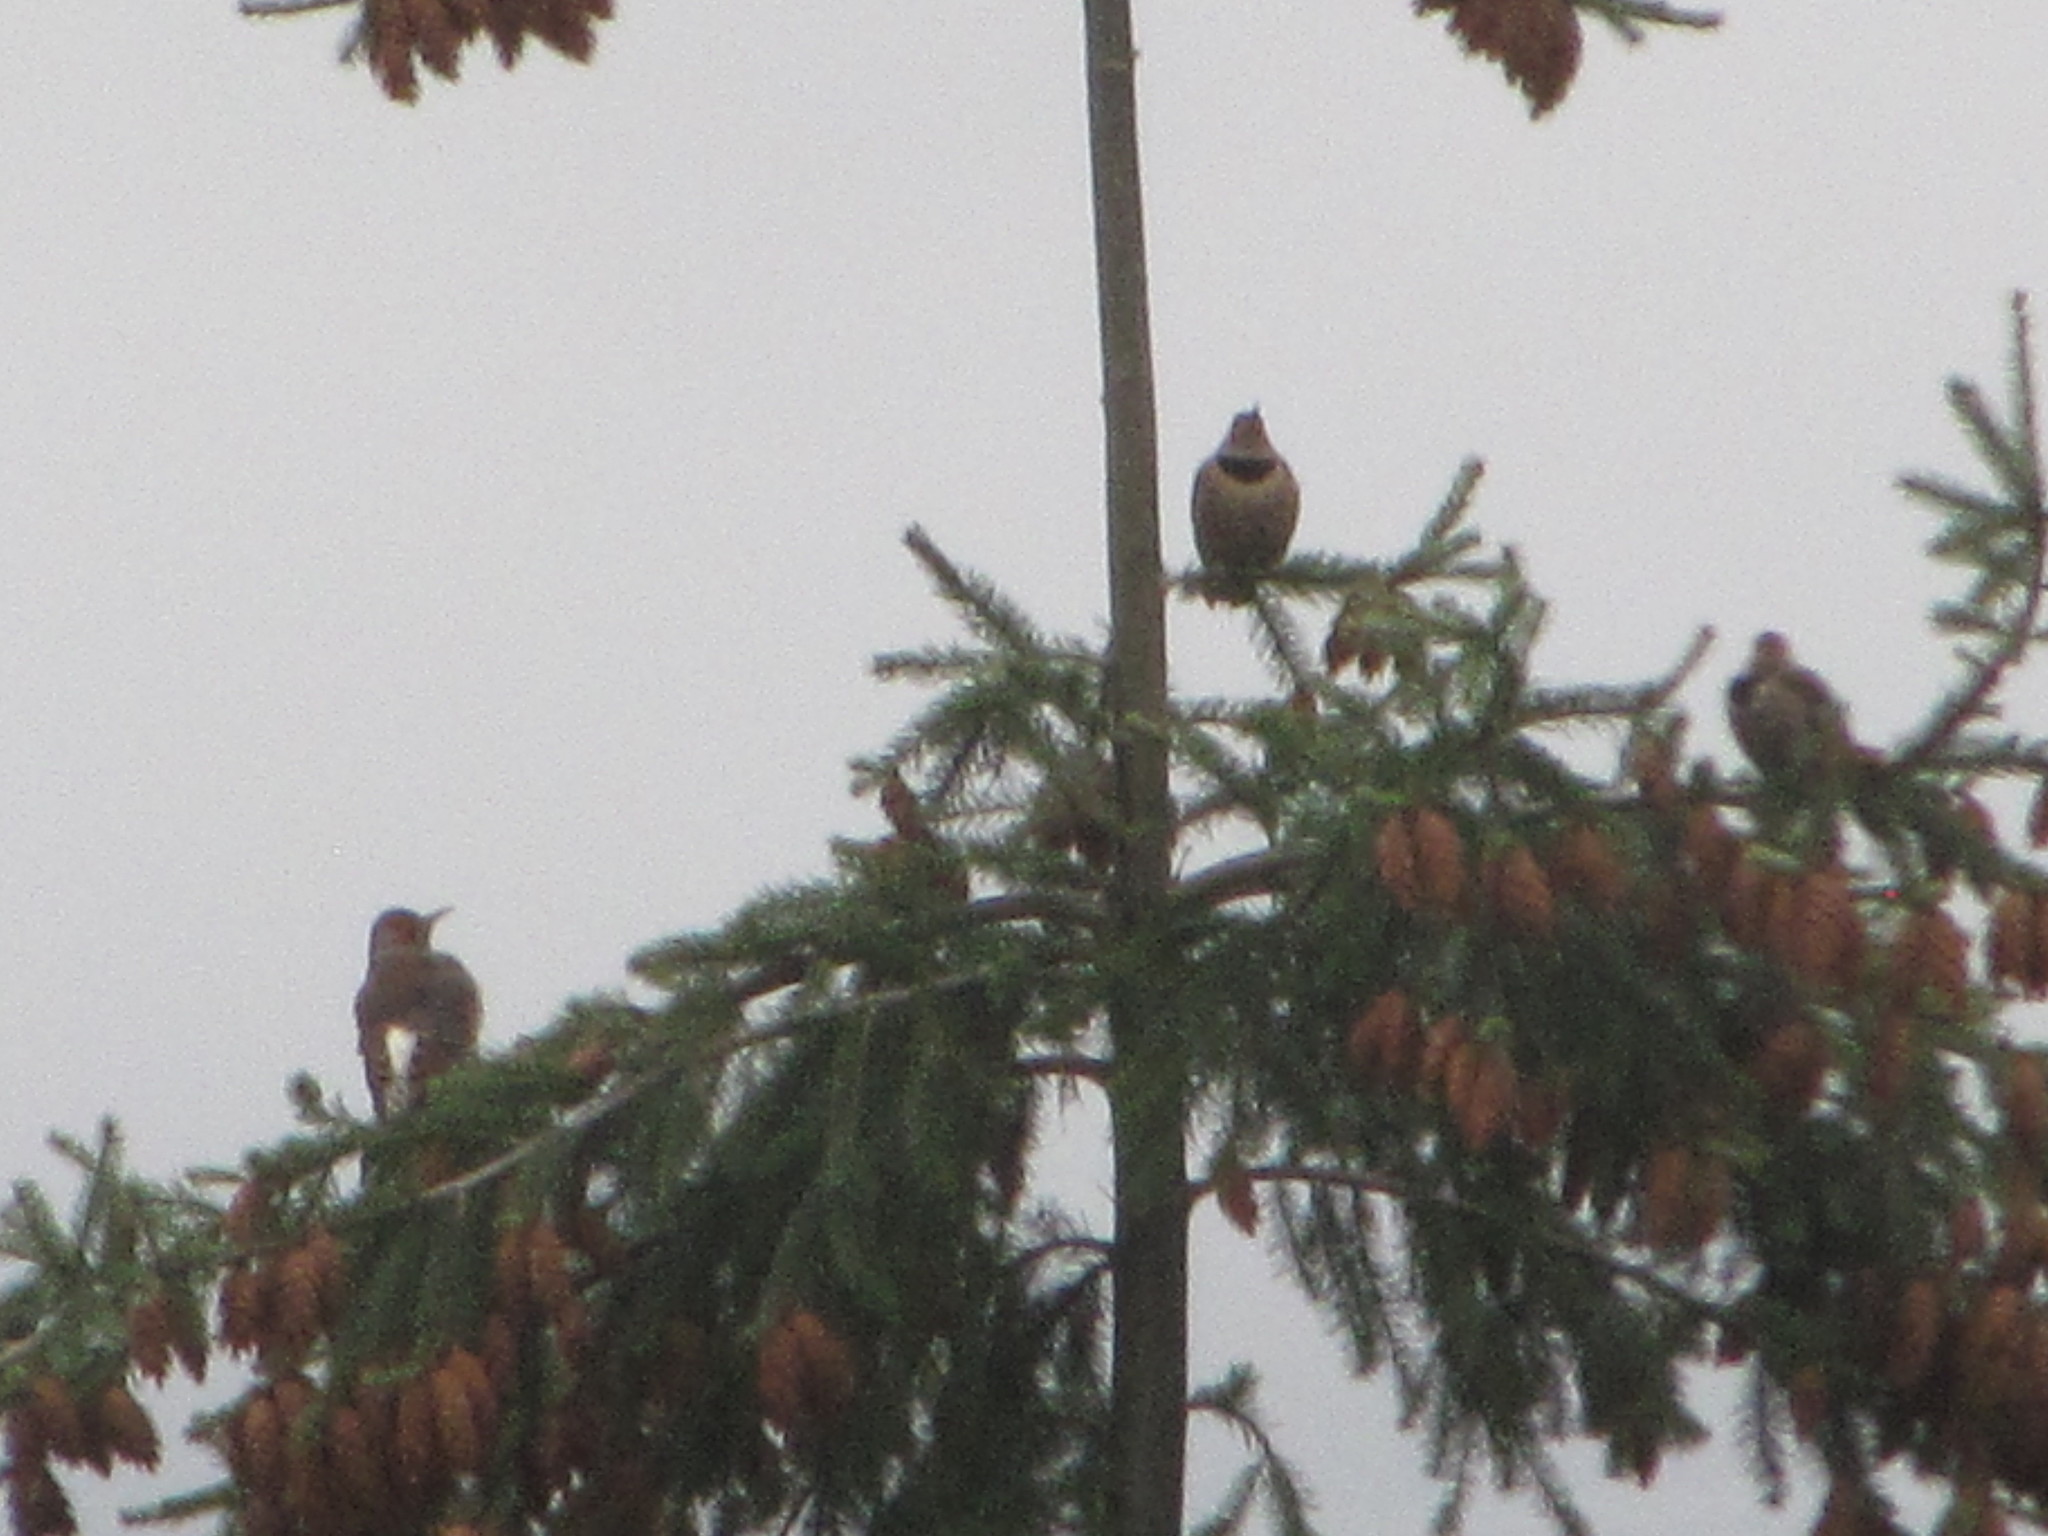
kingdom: Animalia
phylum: Chordata
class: Aves
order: Piciformes
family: Picidae
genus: Colaptes
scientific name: Colaptes auratus
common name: Northern flicker
